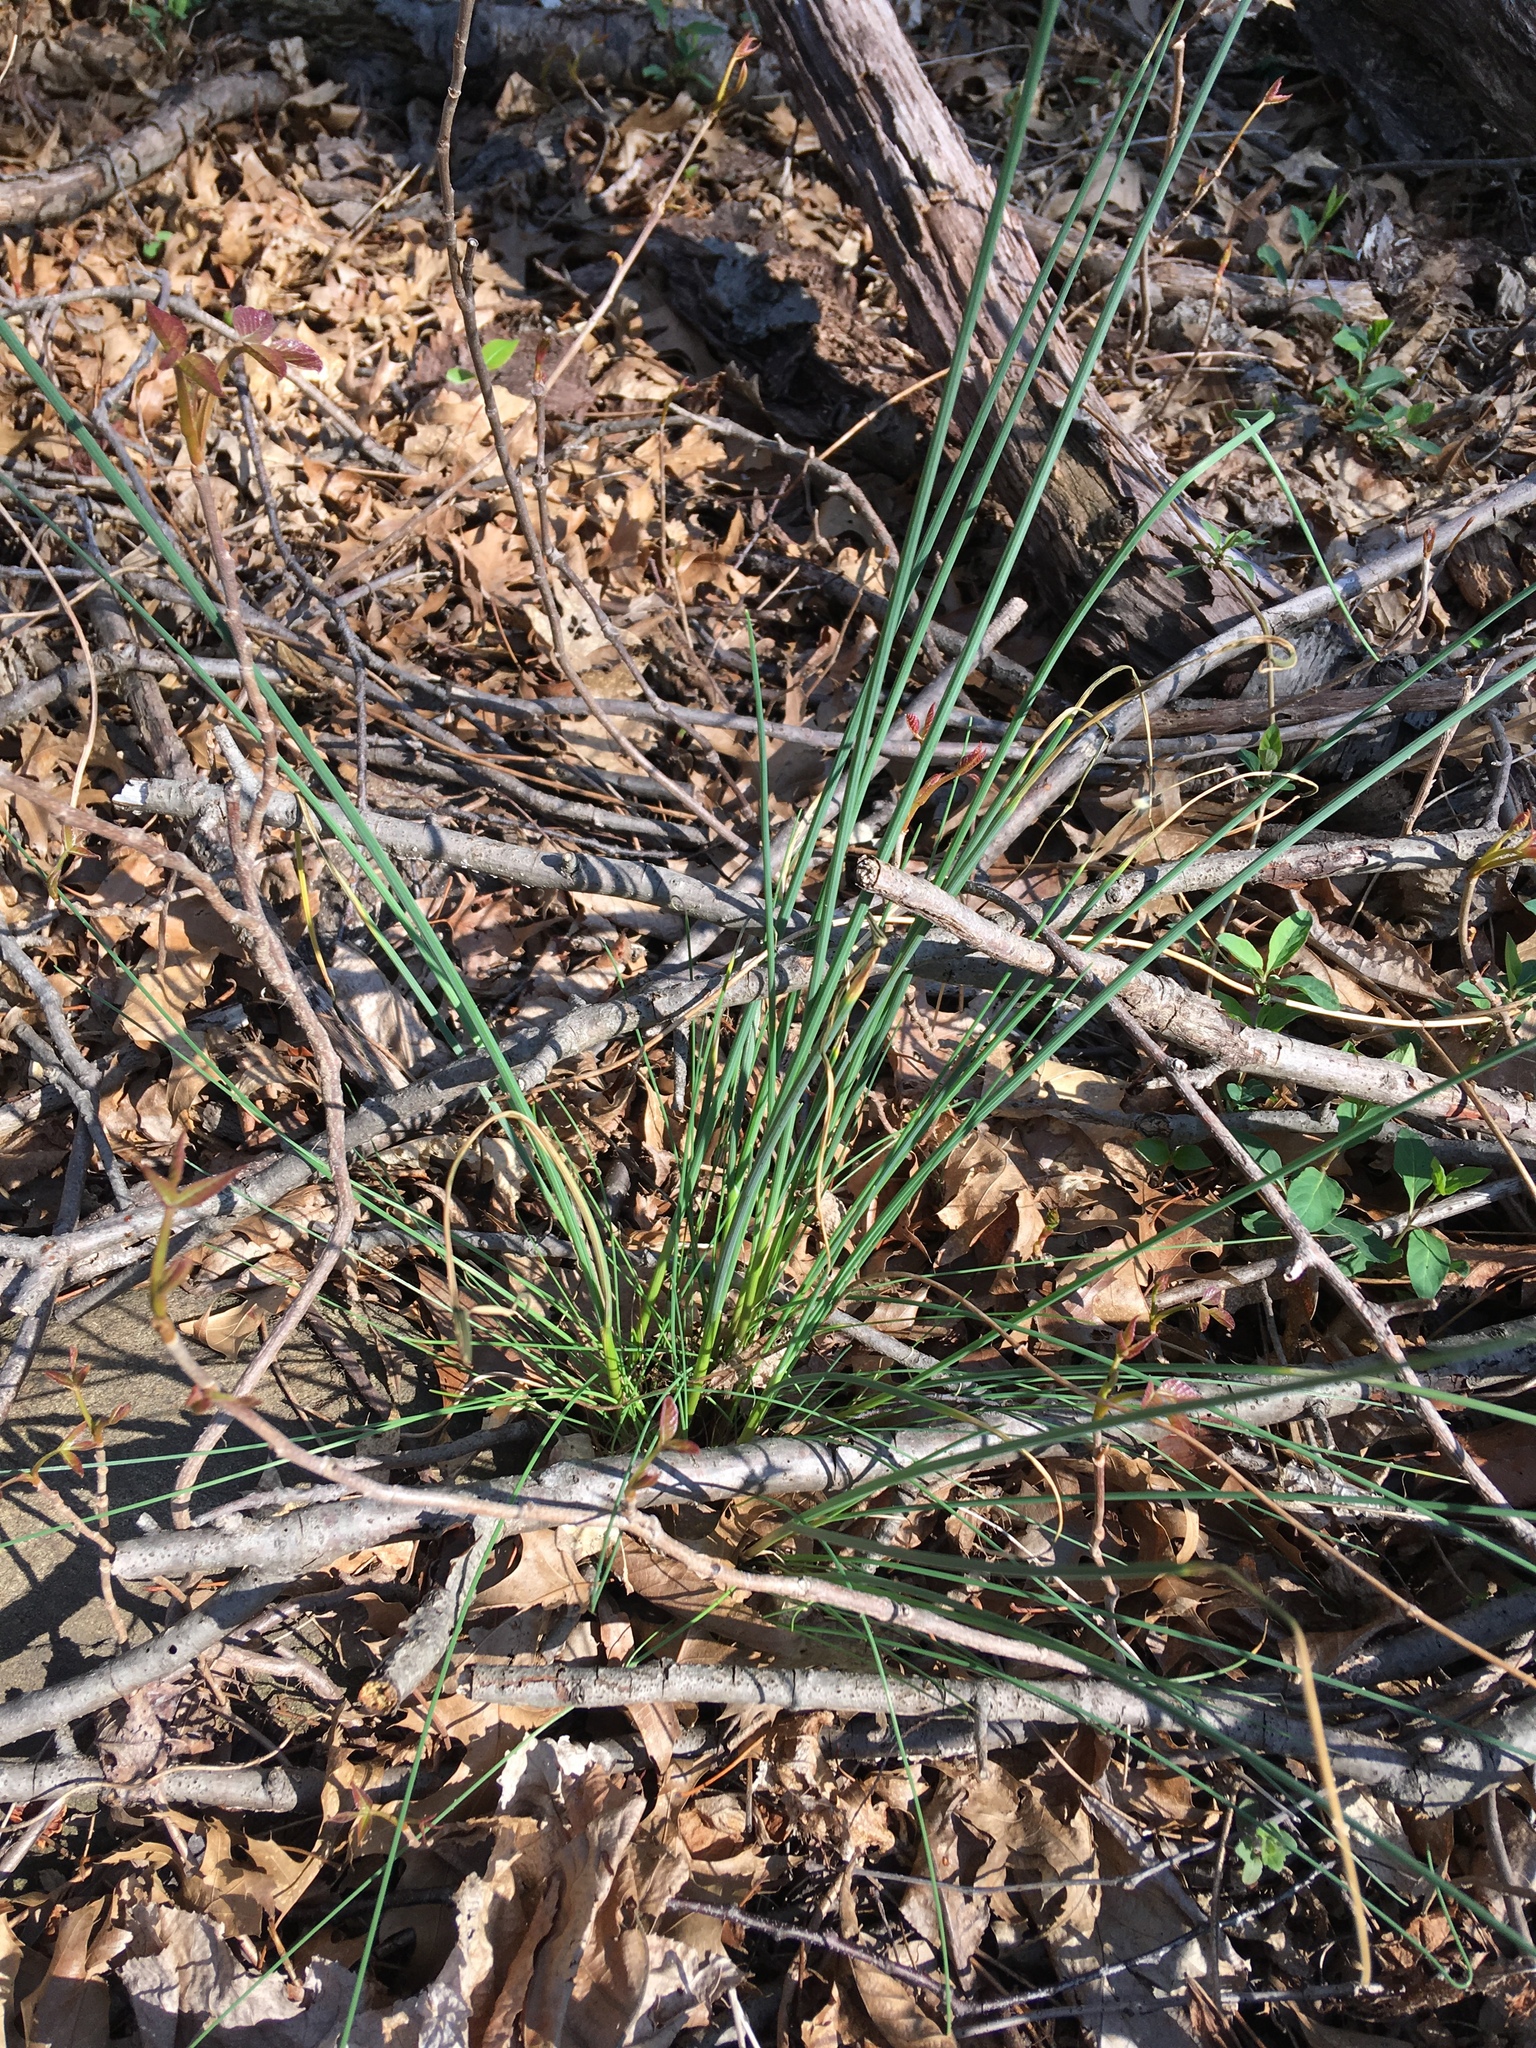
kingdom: Plantae
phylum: Tracheophyta
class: Liliopsida
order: Asparagales
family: Amaryllidaceae
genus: Allium
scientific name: Allium vineale
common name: Crow garlic
